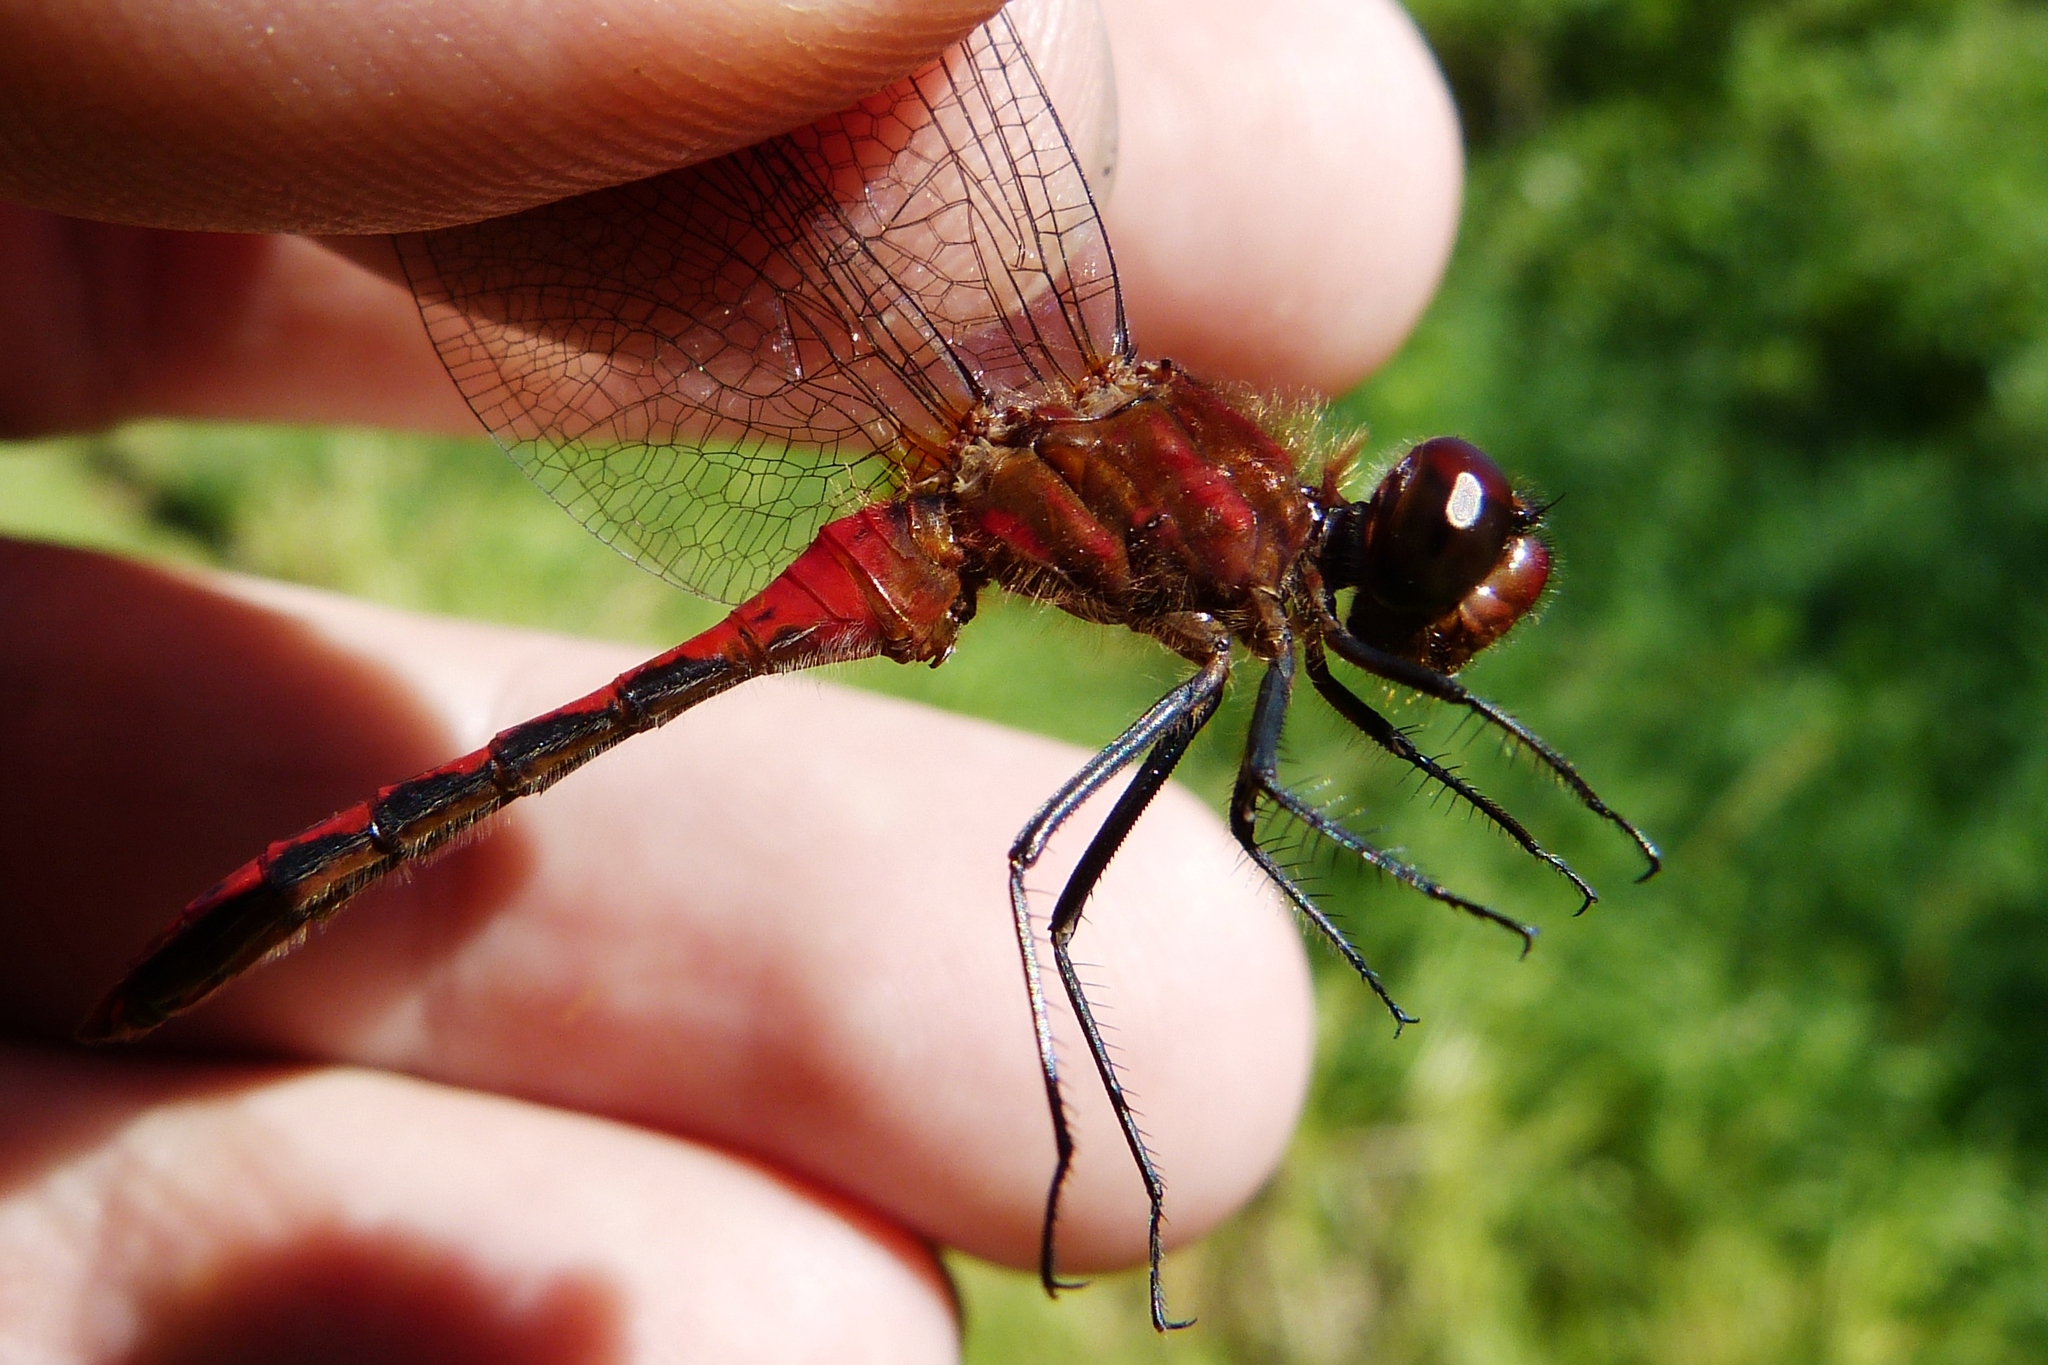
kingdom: Animalia
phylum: Arthropoda
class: Insecta
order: Odonata
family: Libellulidae
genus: Sympetrum
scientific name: Sympetrum internum
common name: Cherry-faced meadowhawk
